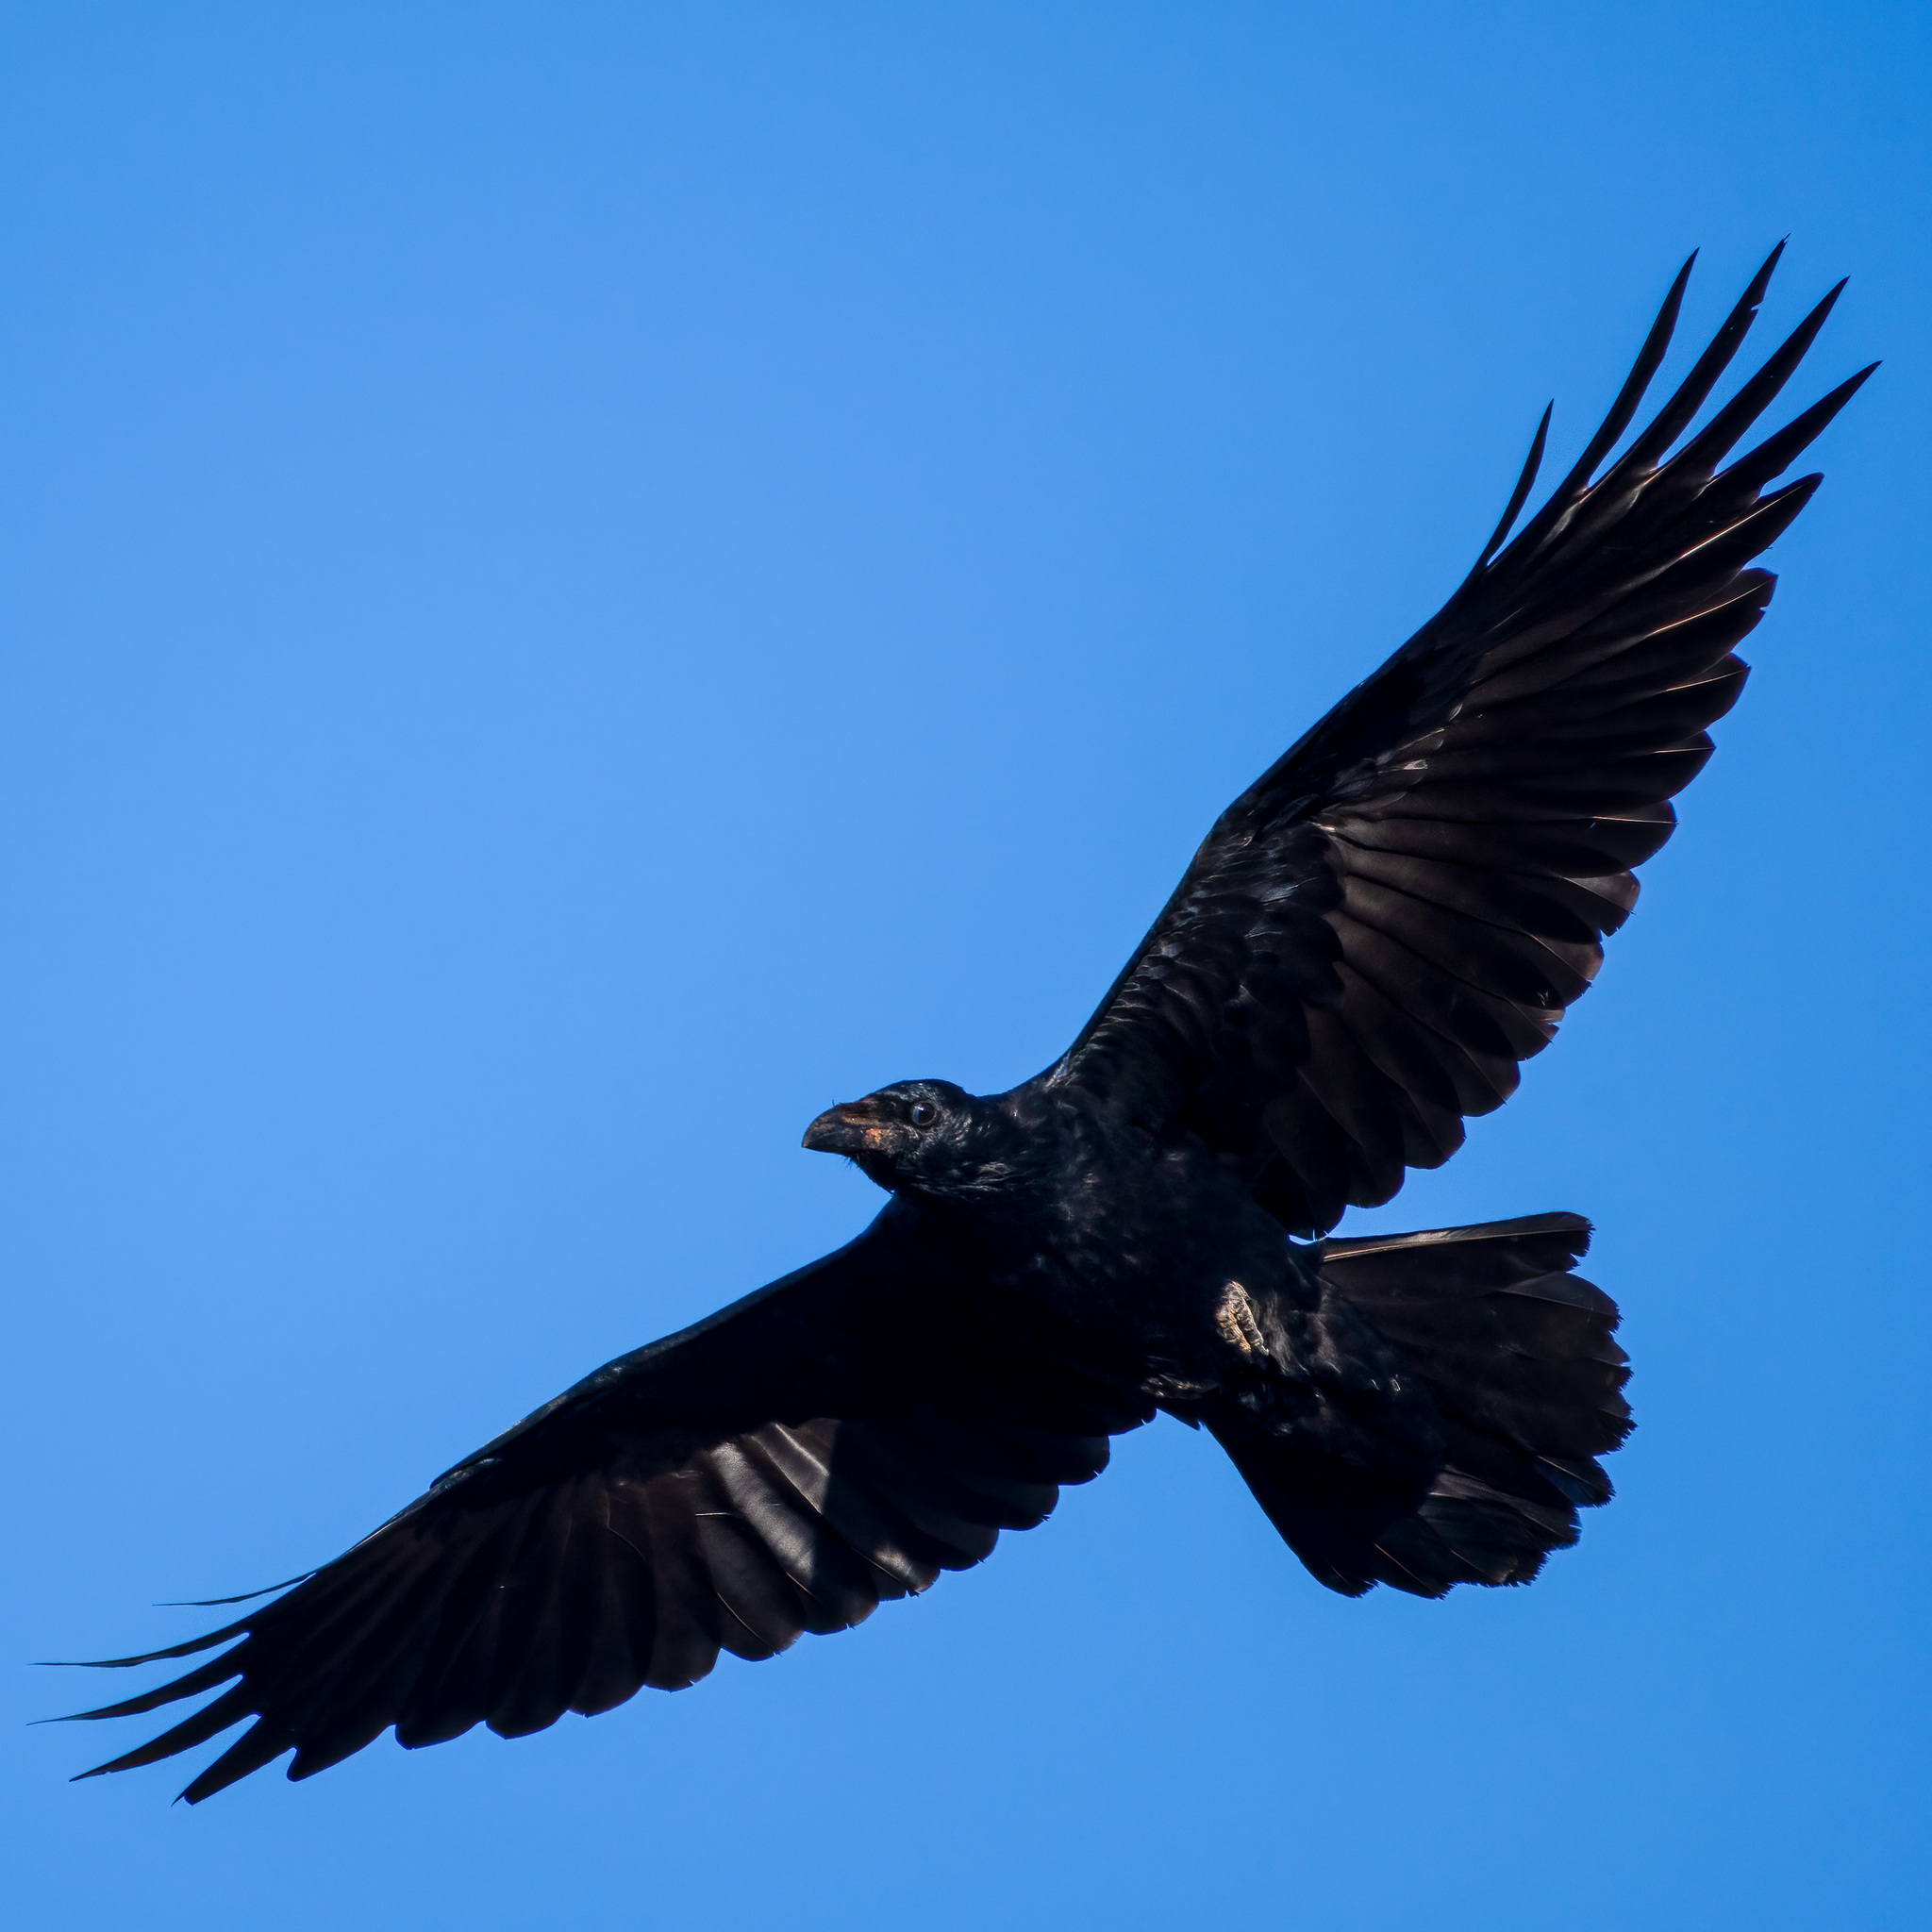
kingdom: Animalia
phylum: Chordata
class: Aves
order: Passeriformes
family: Corvidae
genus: Corvus
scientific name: Corvus corax
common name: Common raven
